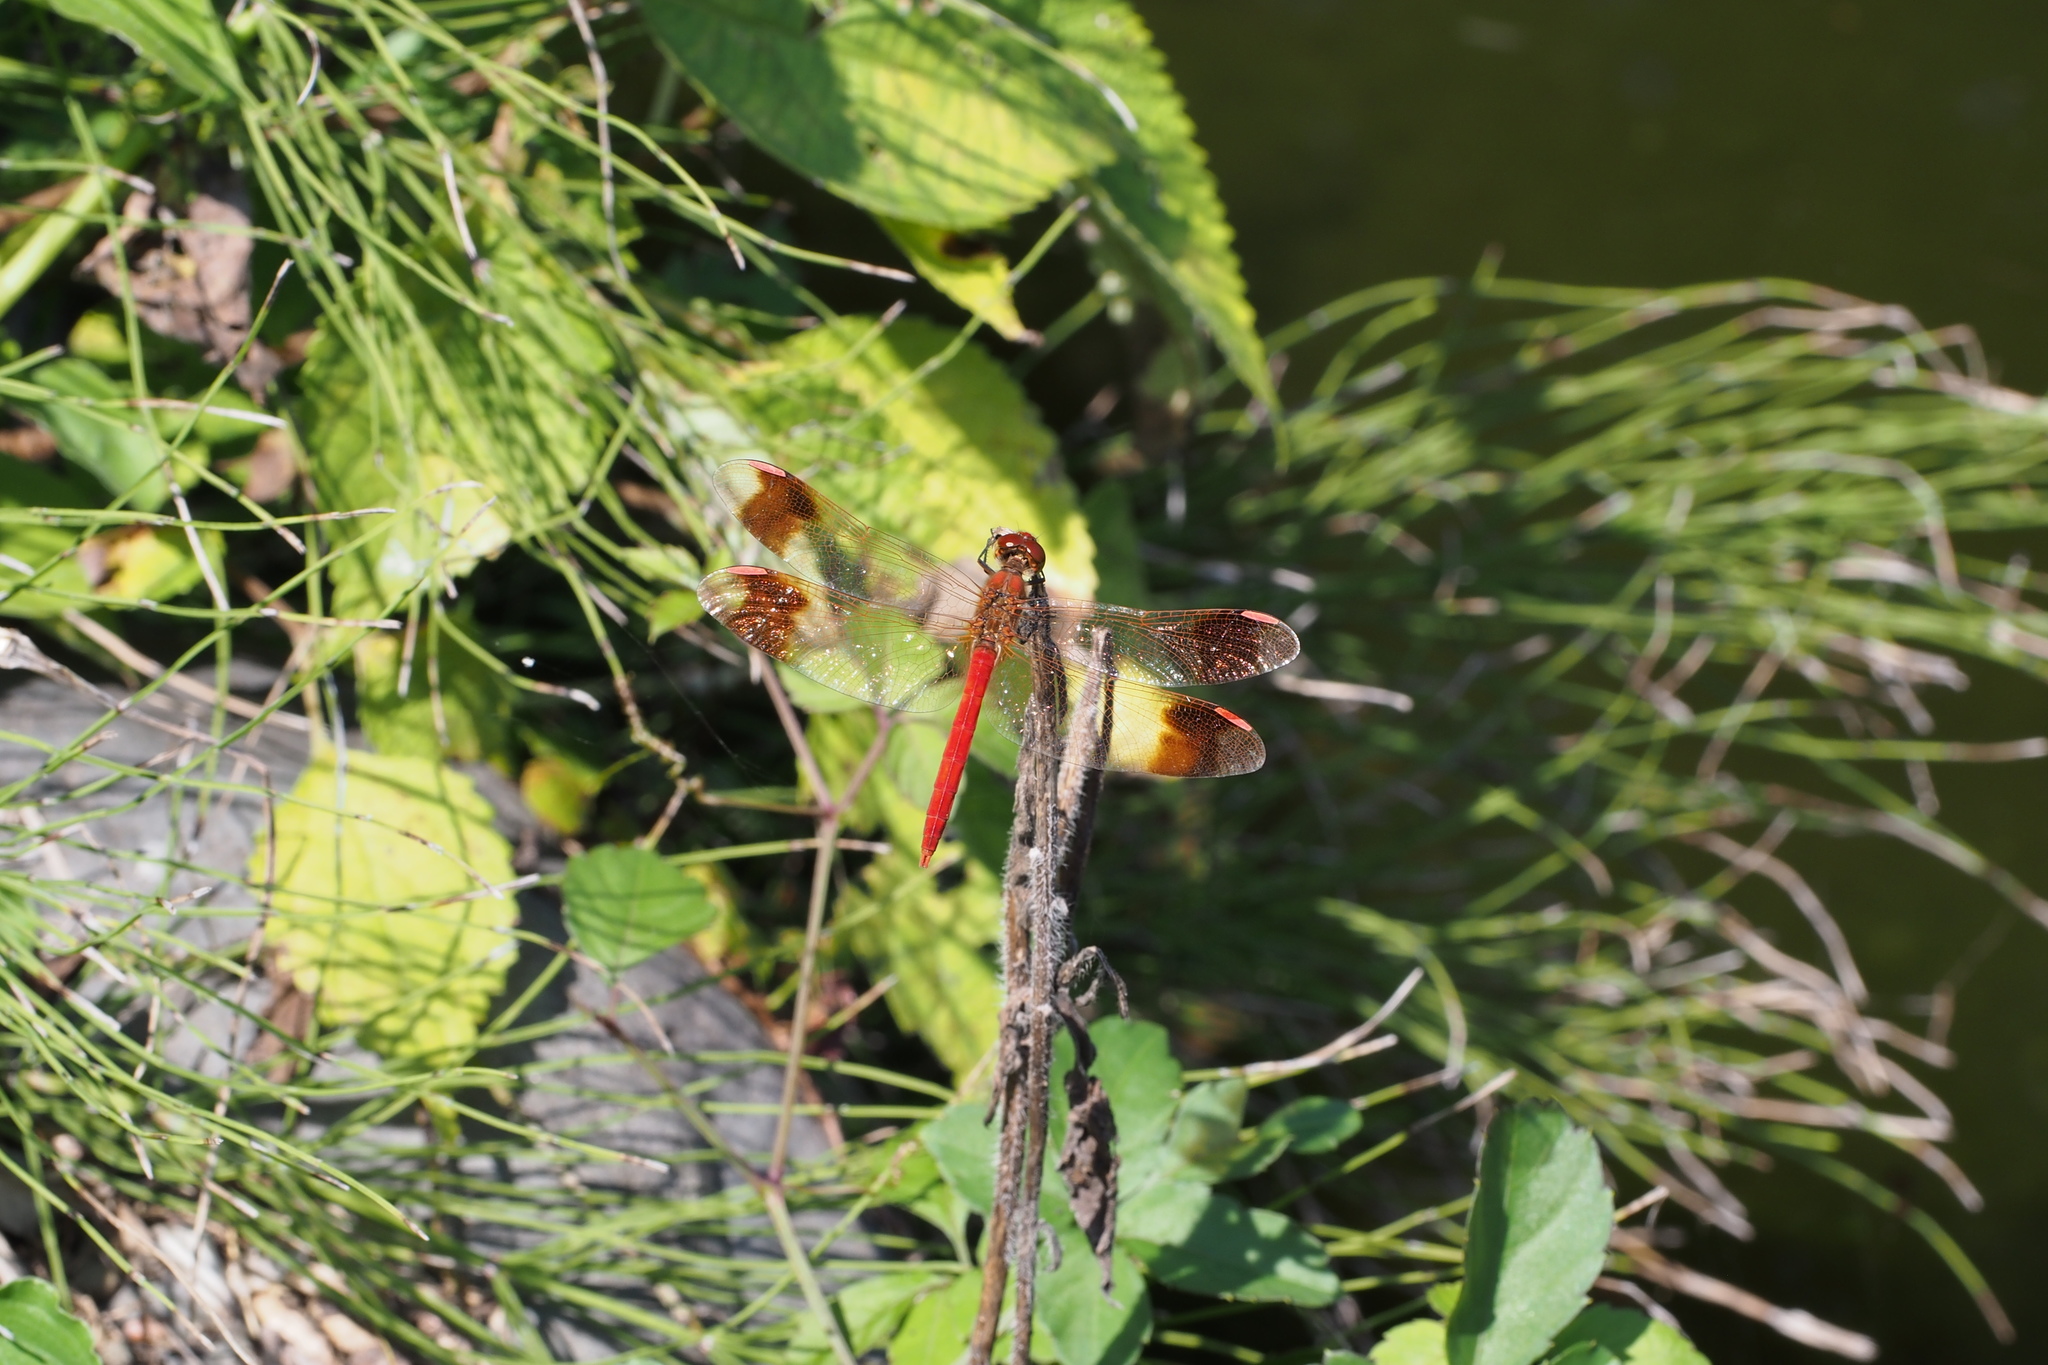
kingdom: Animalia
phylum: Arthropoda
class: Insecta
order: Odonata
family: Libellulidae
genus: Sympetrum
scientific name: Sympetrum pedemontanum
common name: Banded darter
